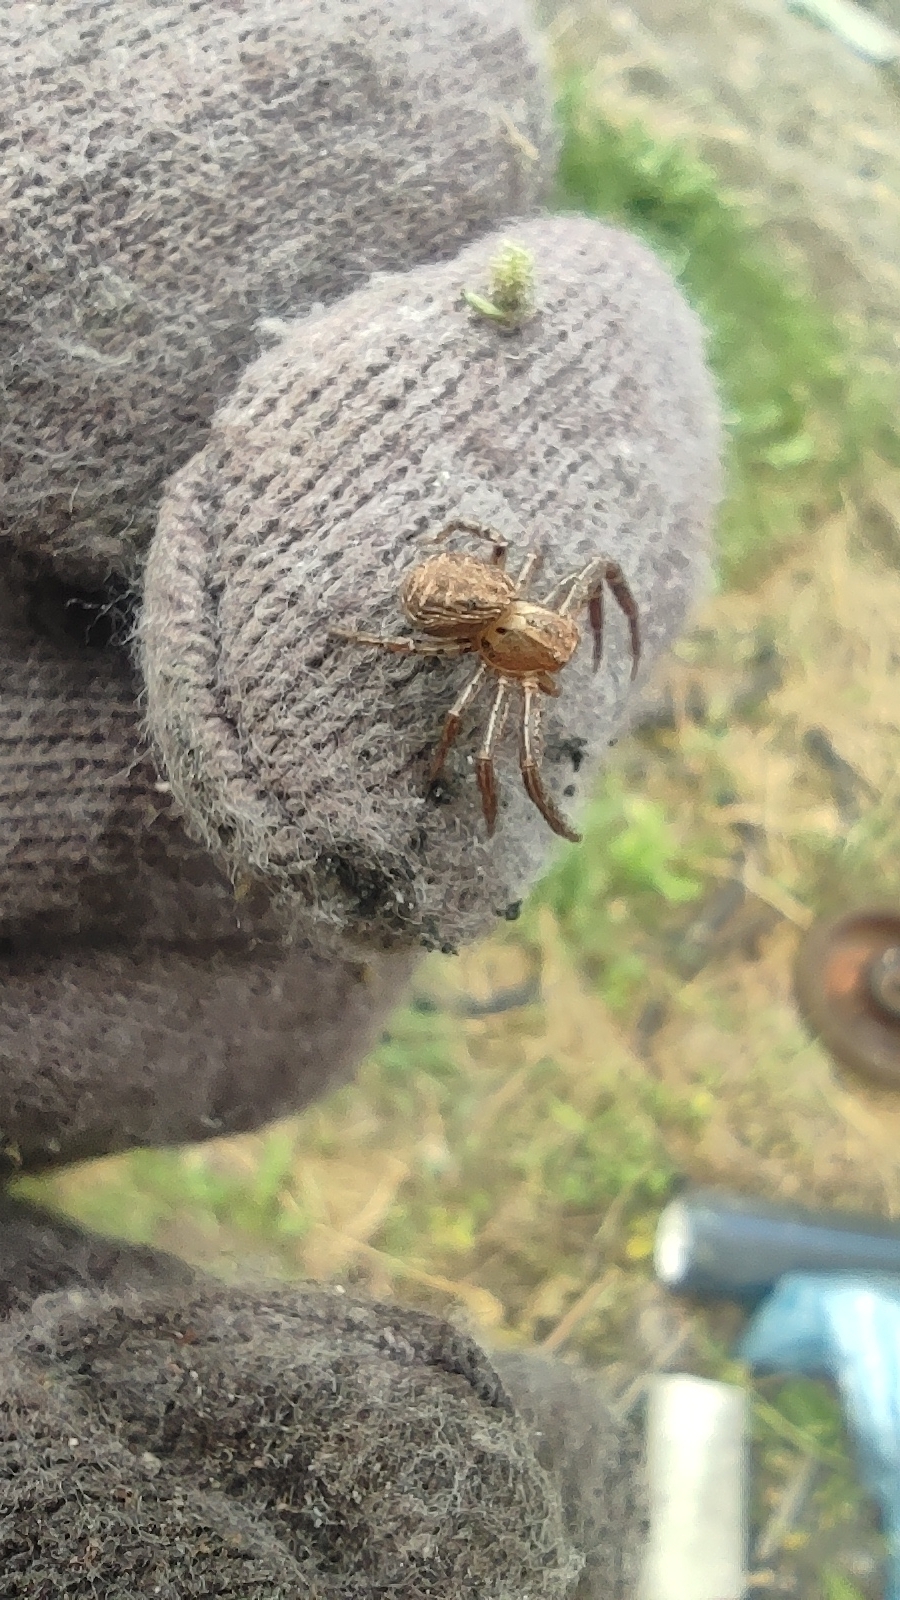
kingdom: Animalia
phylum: Arthropoda
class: Arachnida
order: Araneae
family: Thomisidae
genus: Xysticus
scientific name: Xysticus
